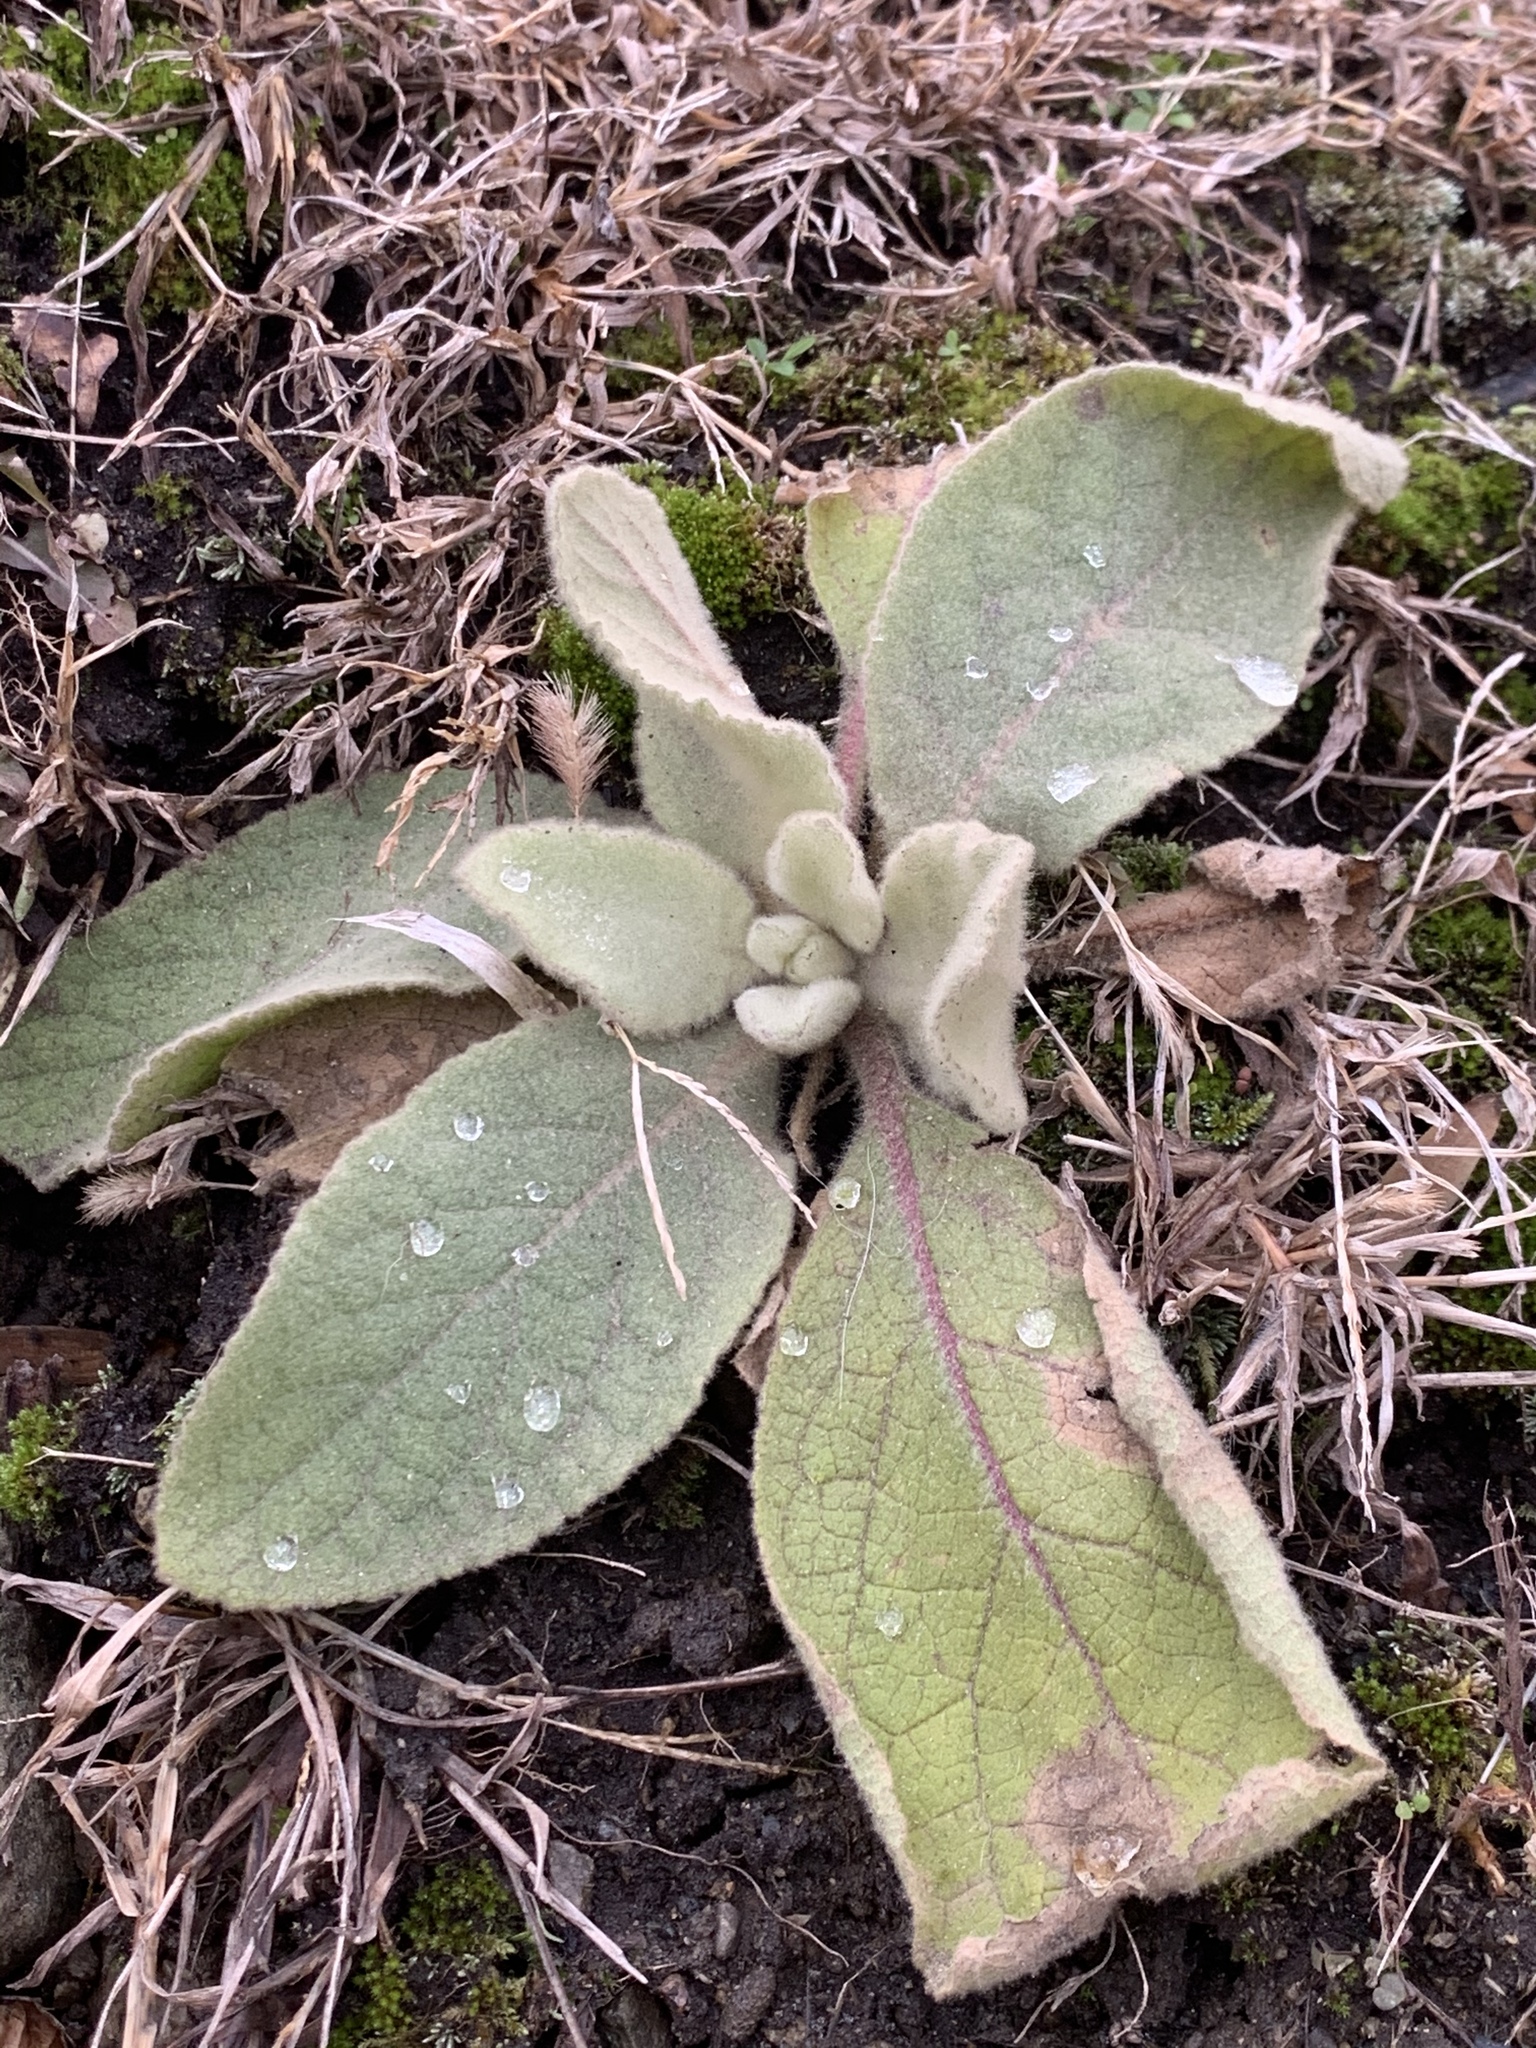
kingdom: Plantae
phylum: Tracheophyta
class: Magnoliopsida
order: Lamiales
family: Scrophulariaceae
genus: Verbascum
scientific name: Verbascum thapsus
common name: Common mullein
